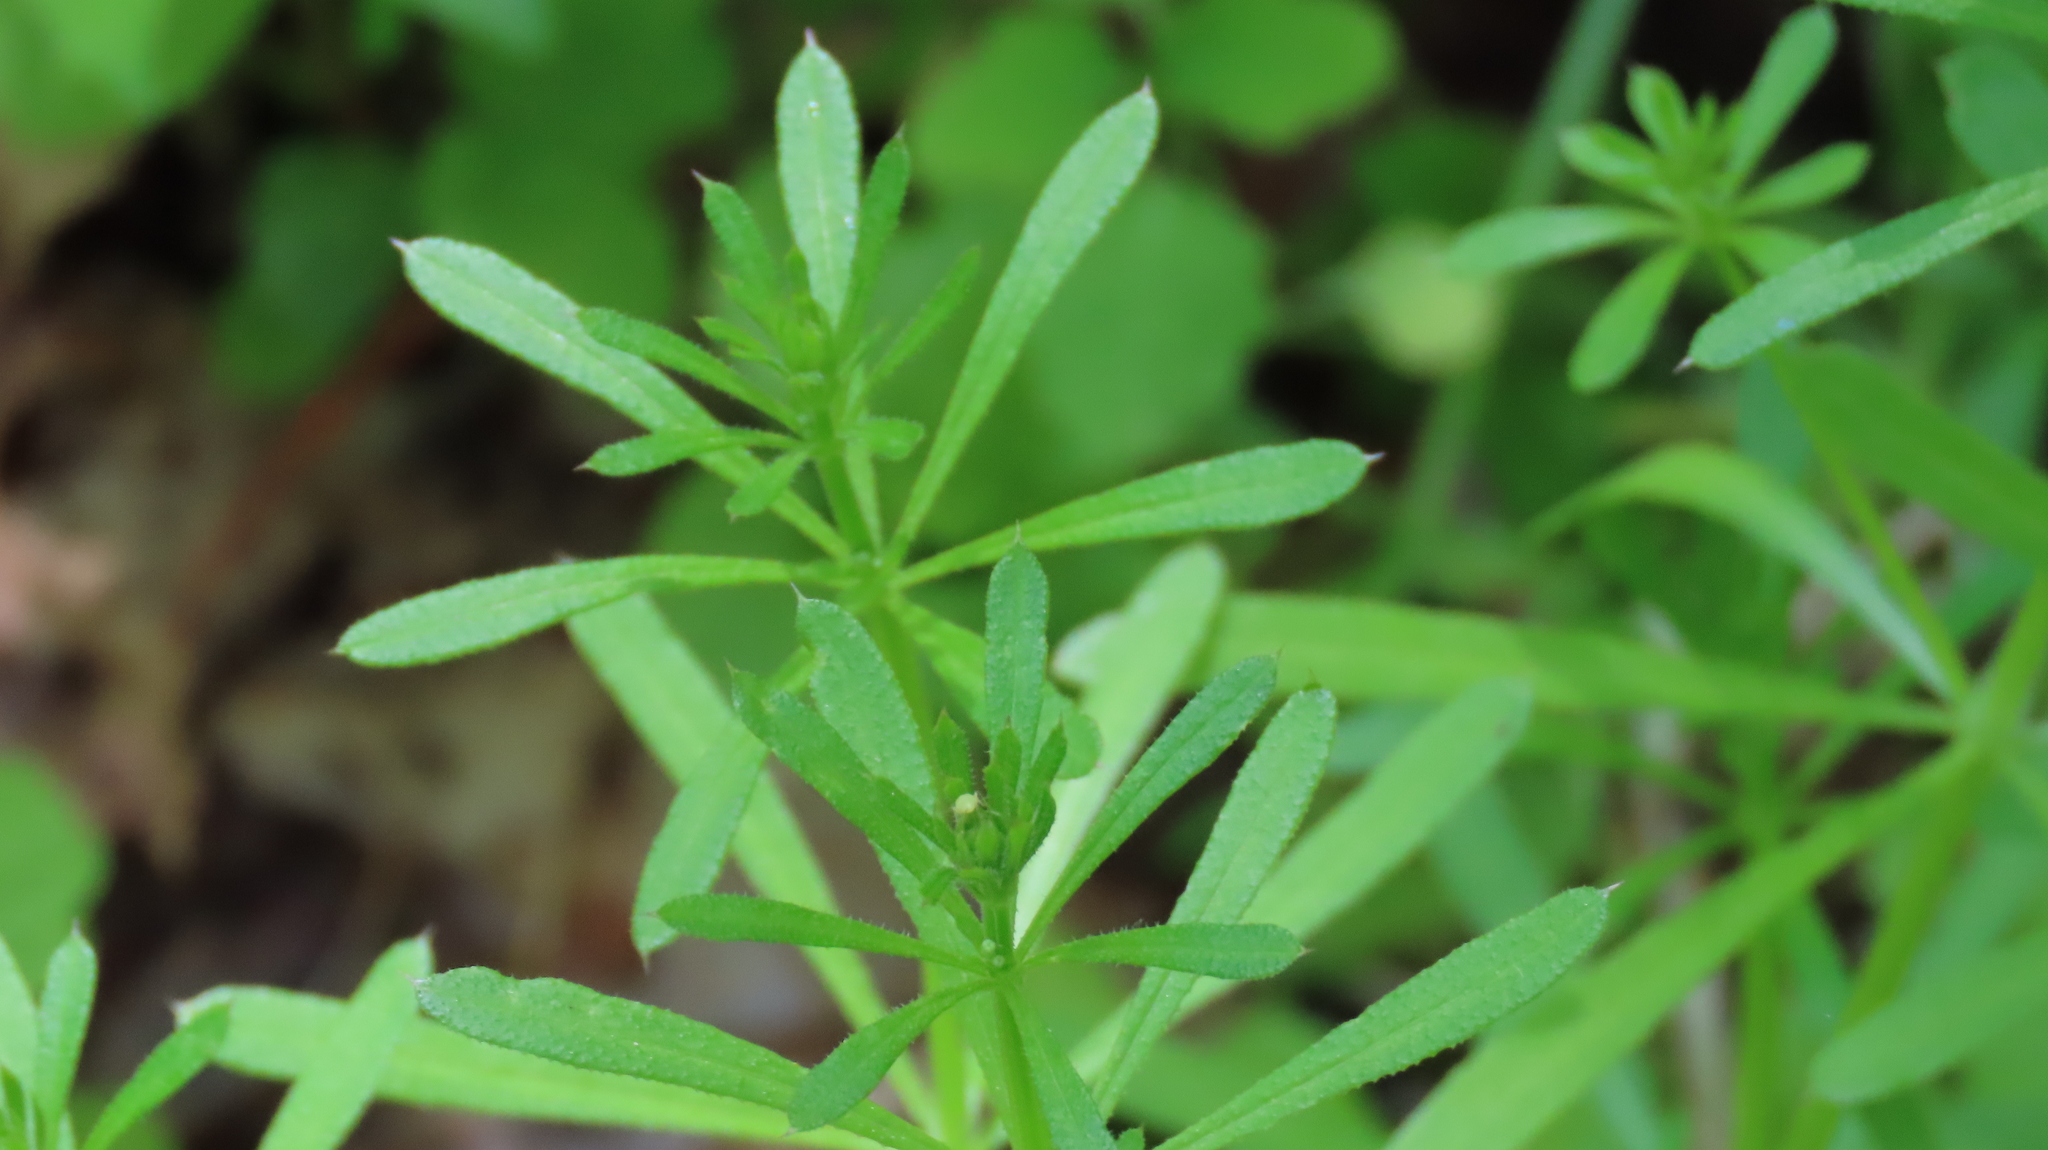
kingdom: Plantae
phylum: Tracheophyta
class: Magnoliopsida
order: Gentianales
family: Rubiaceae
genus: Galium
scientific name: Galium aparine
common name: Cleavers
